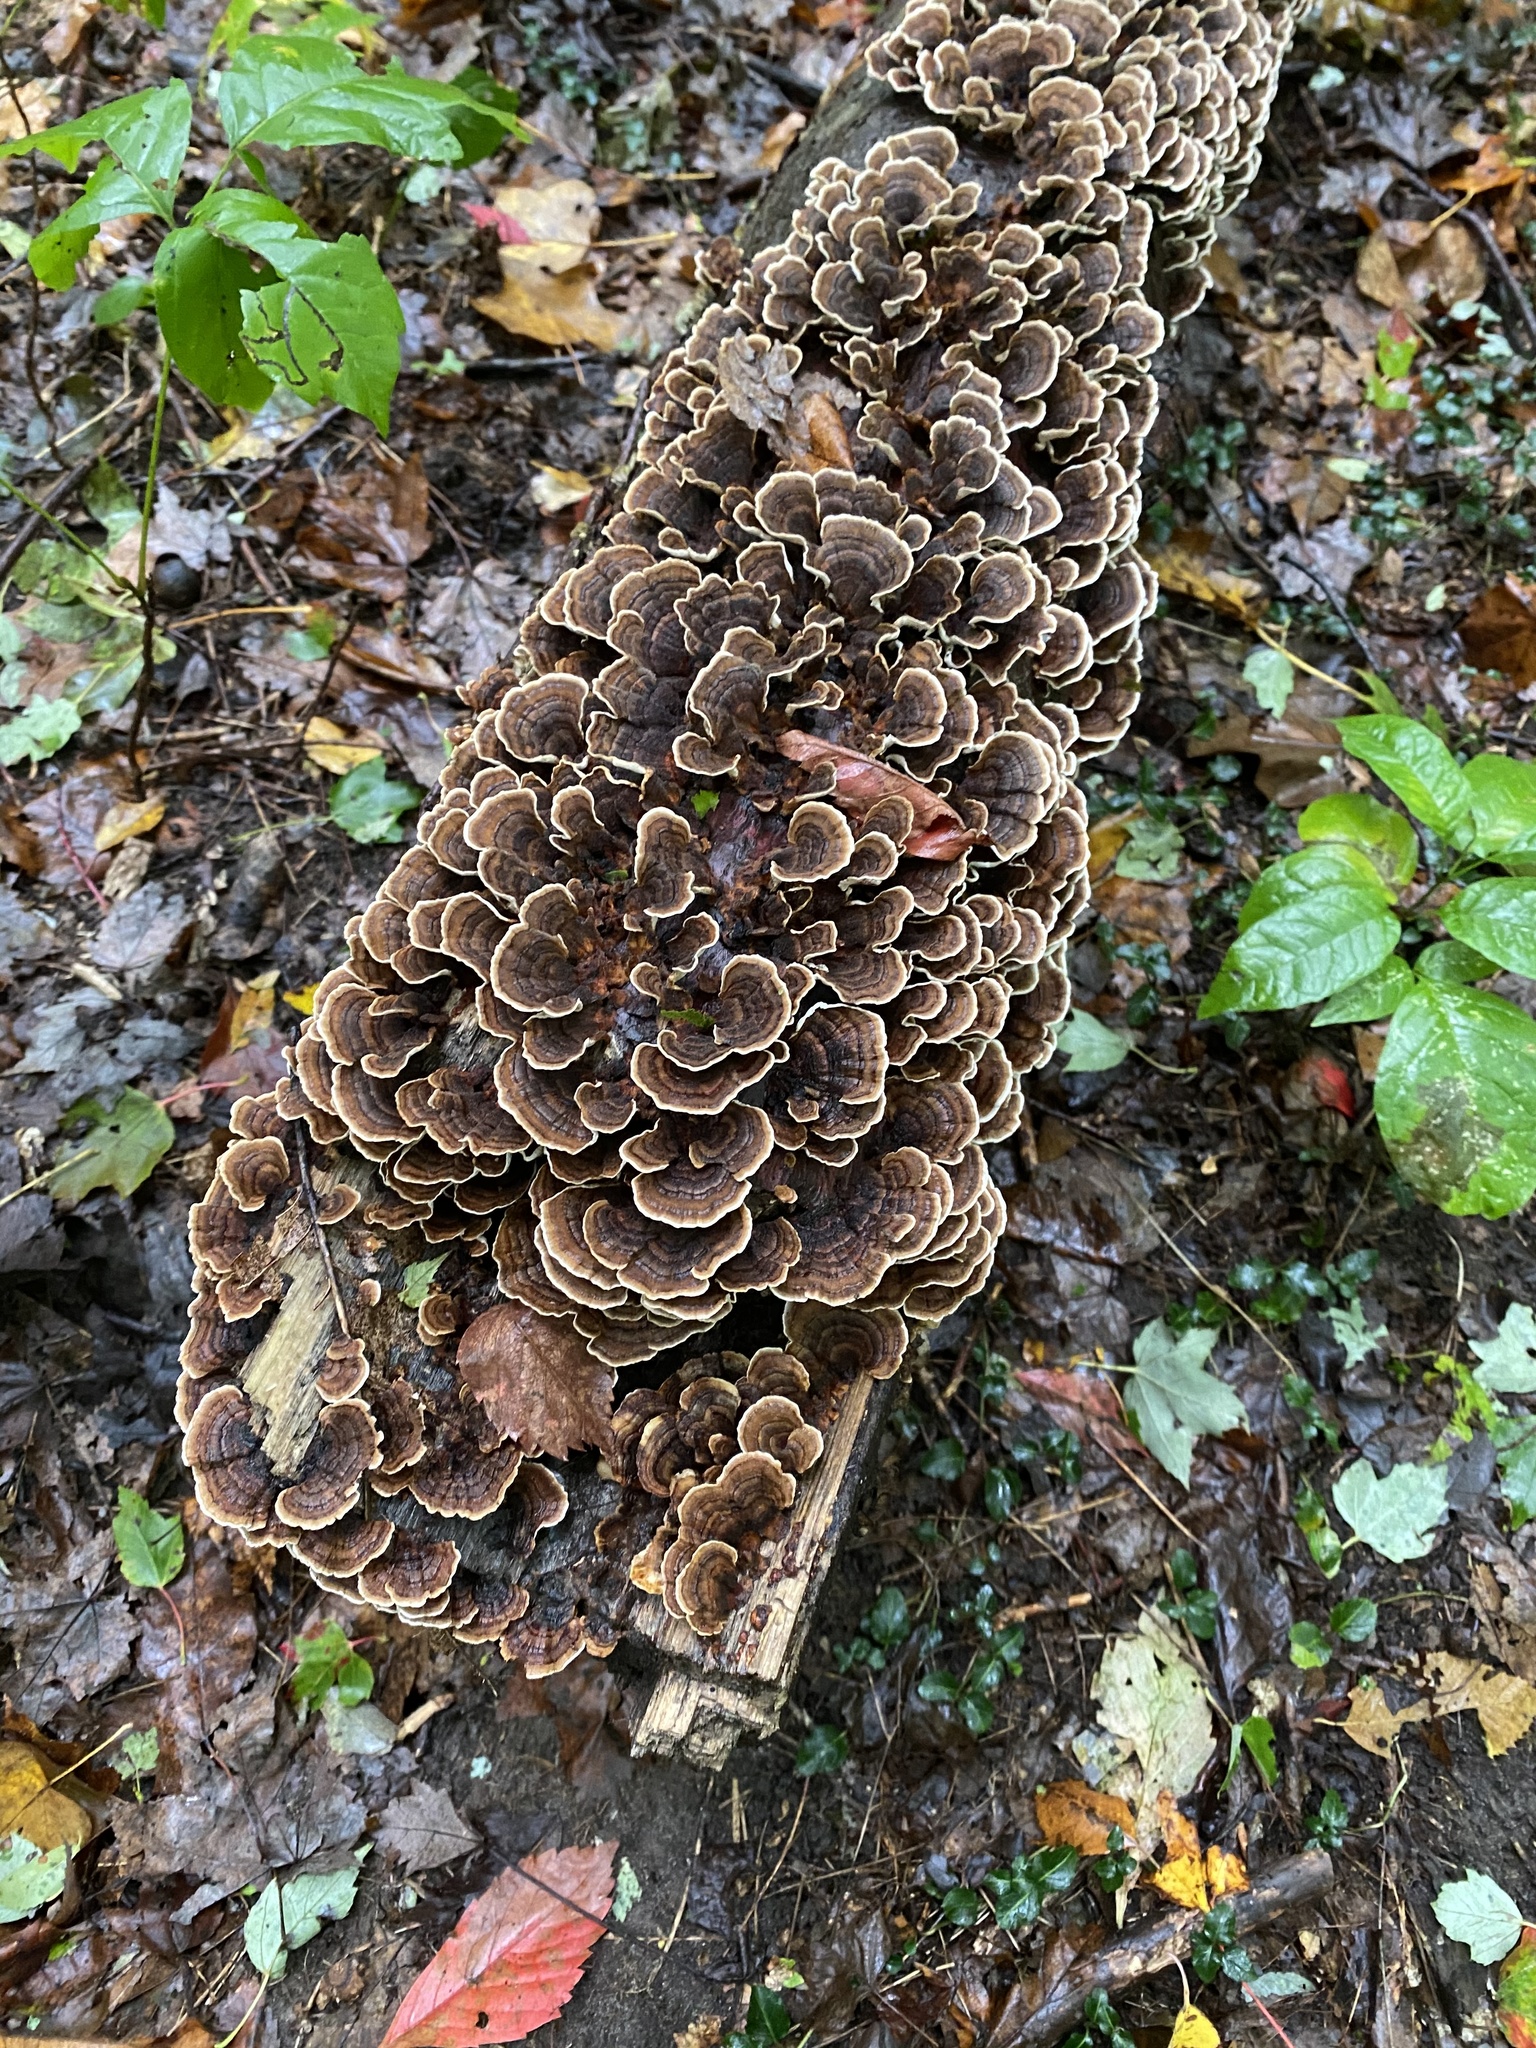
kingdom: Fungi
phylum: Basidiomycota
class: Agaricomycetes
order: Polyporales
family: Polyporaceae
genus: Trametes
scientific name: Trametes versicolor
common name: Turkeytail
